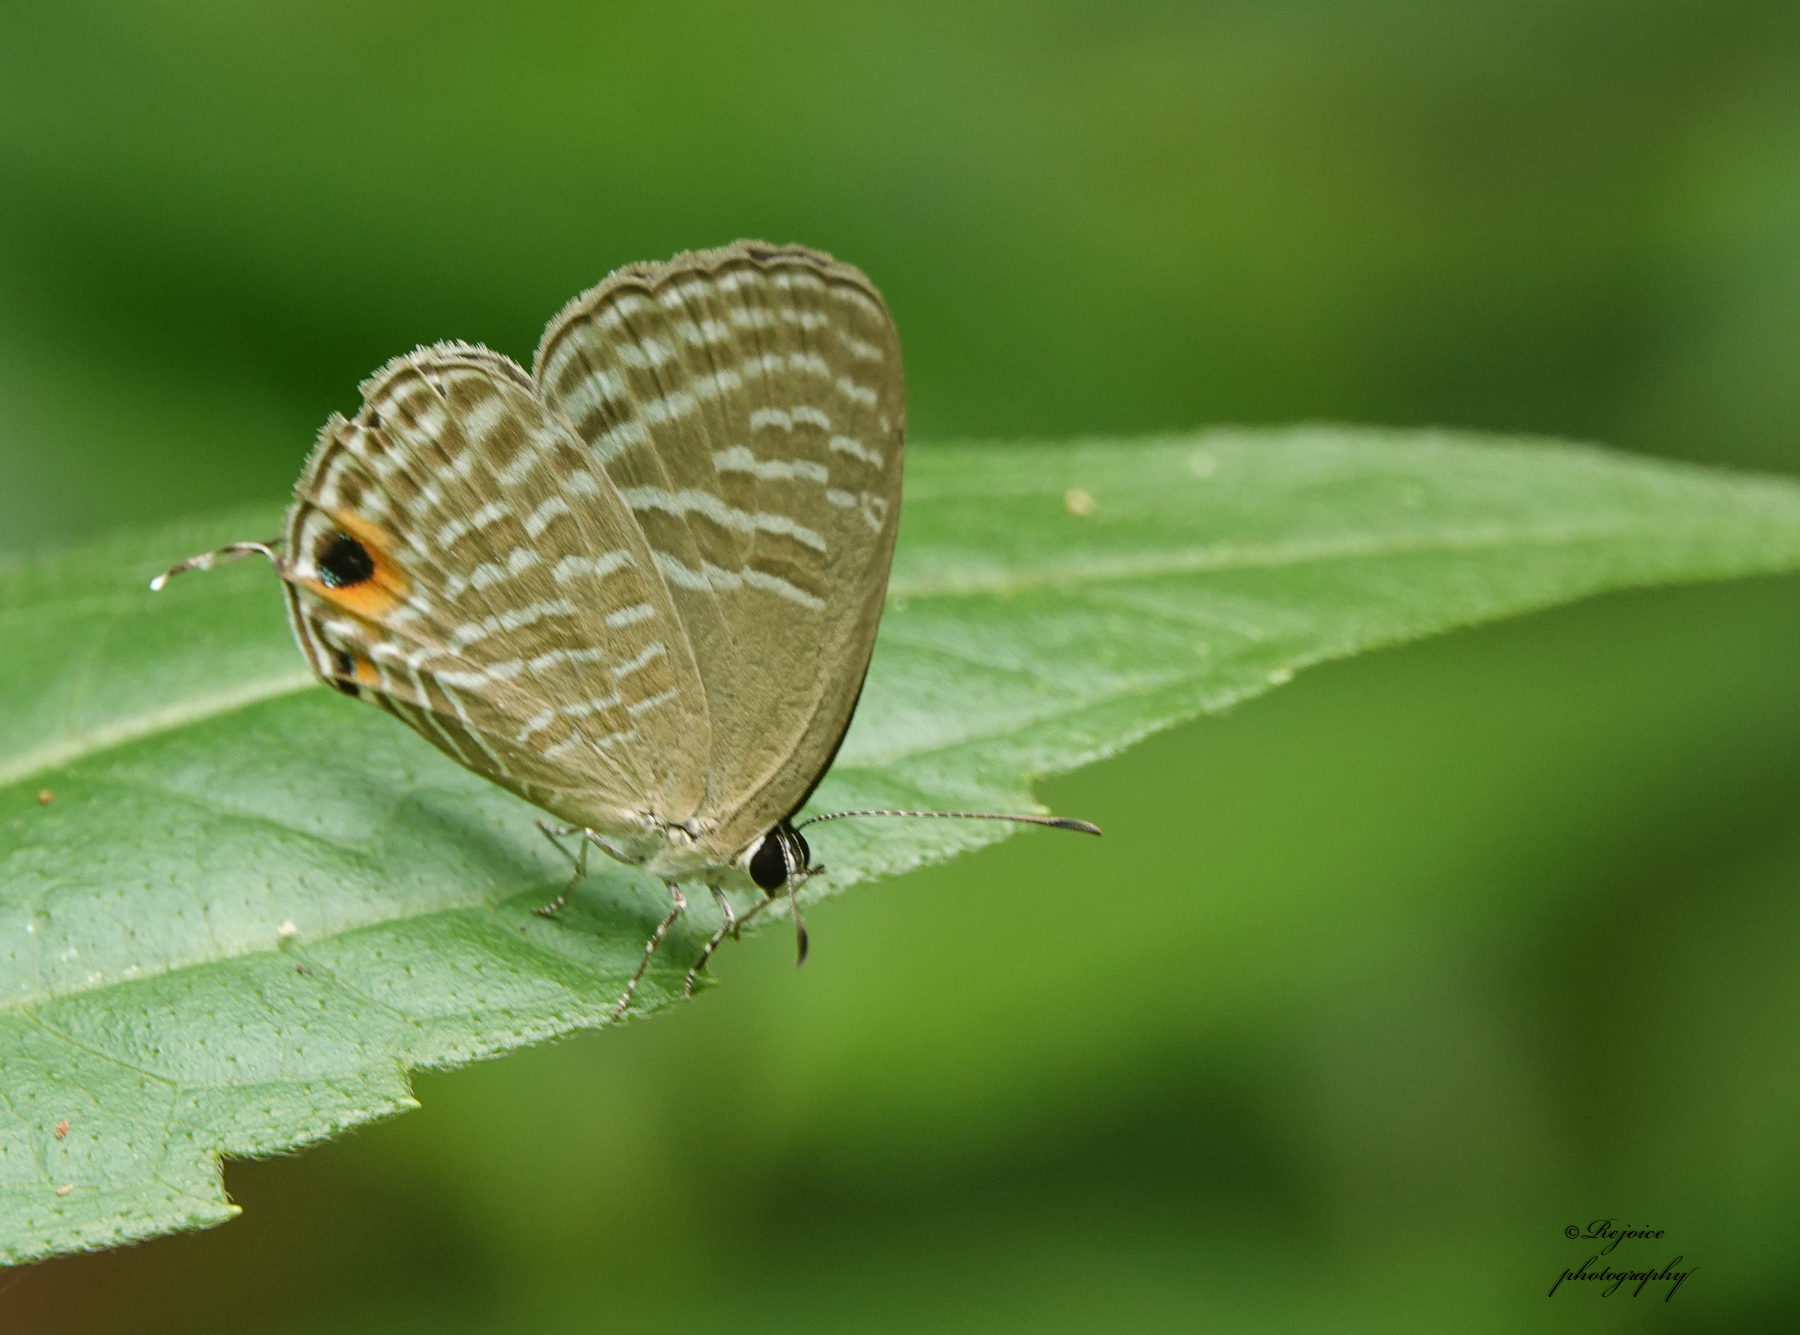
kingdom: Animalia
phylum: Arthropoda
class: Insecta
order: Lepidoptera
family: Lycaenidae
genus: Jamides
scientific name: Jamides bochus
